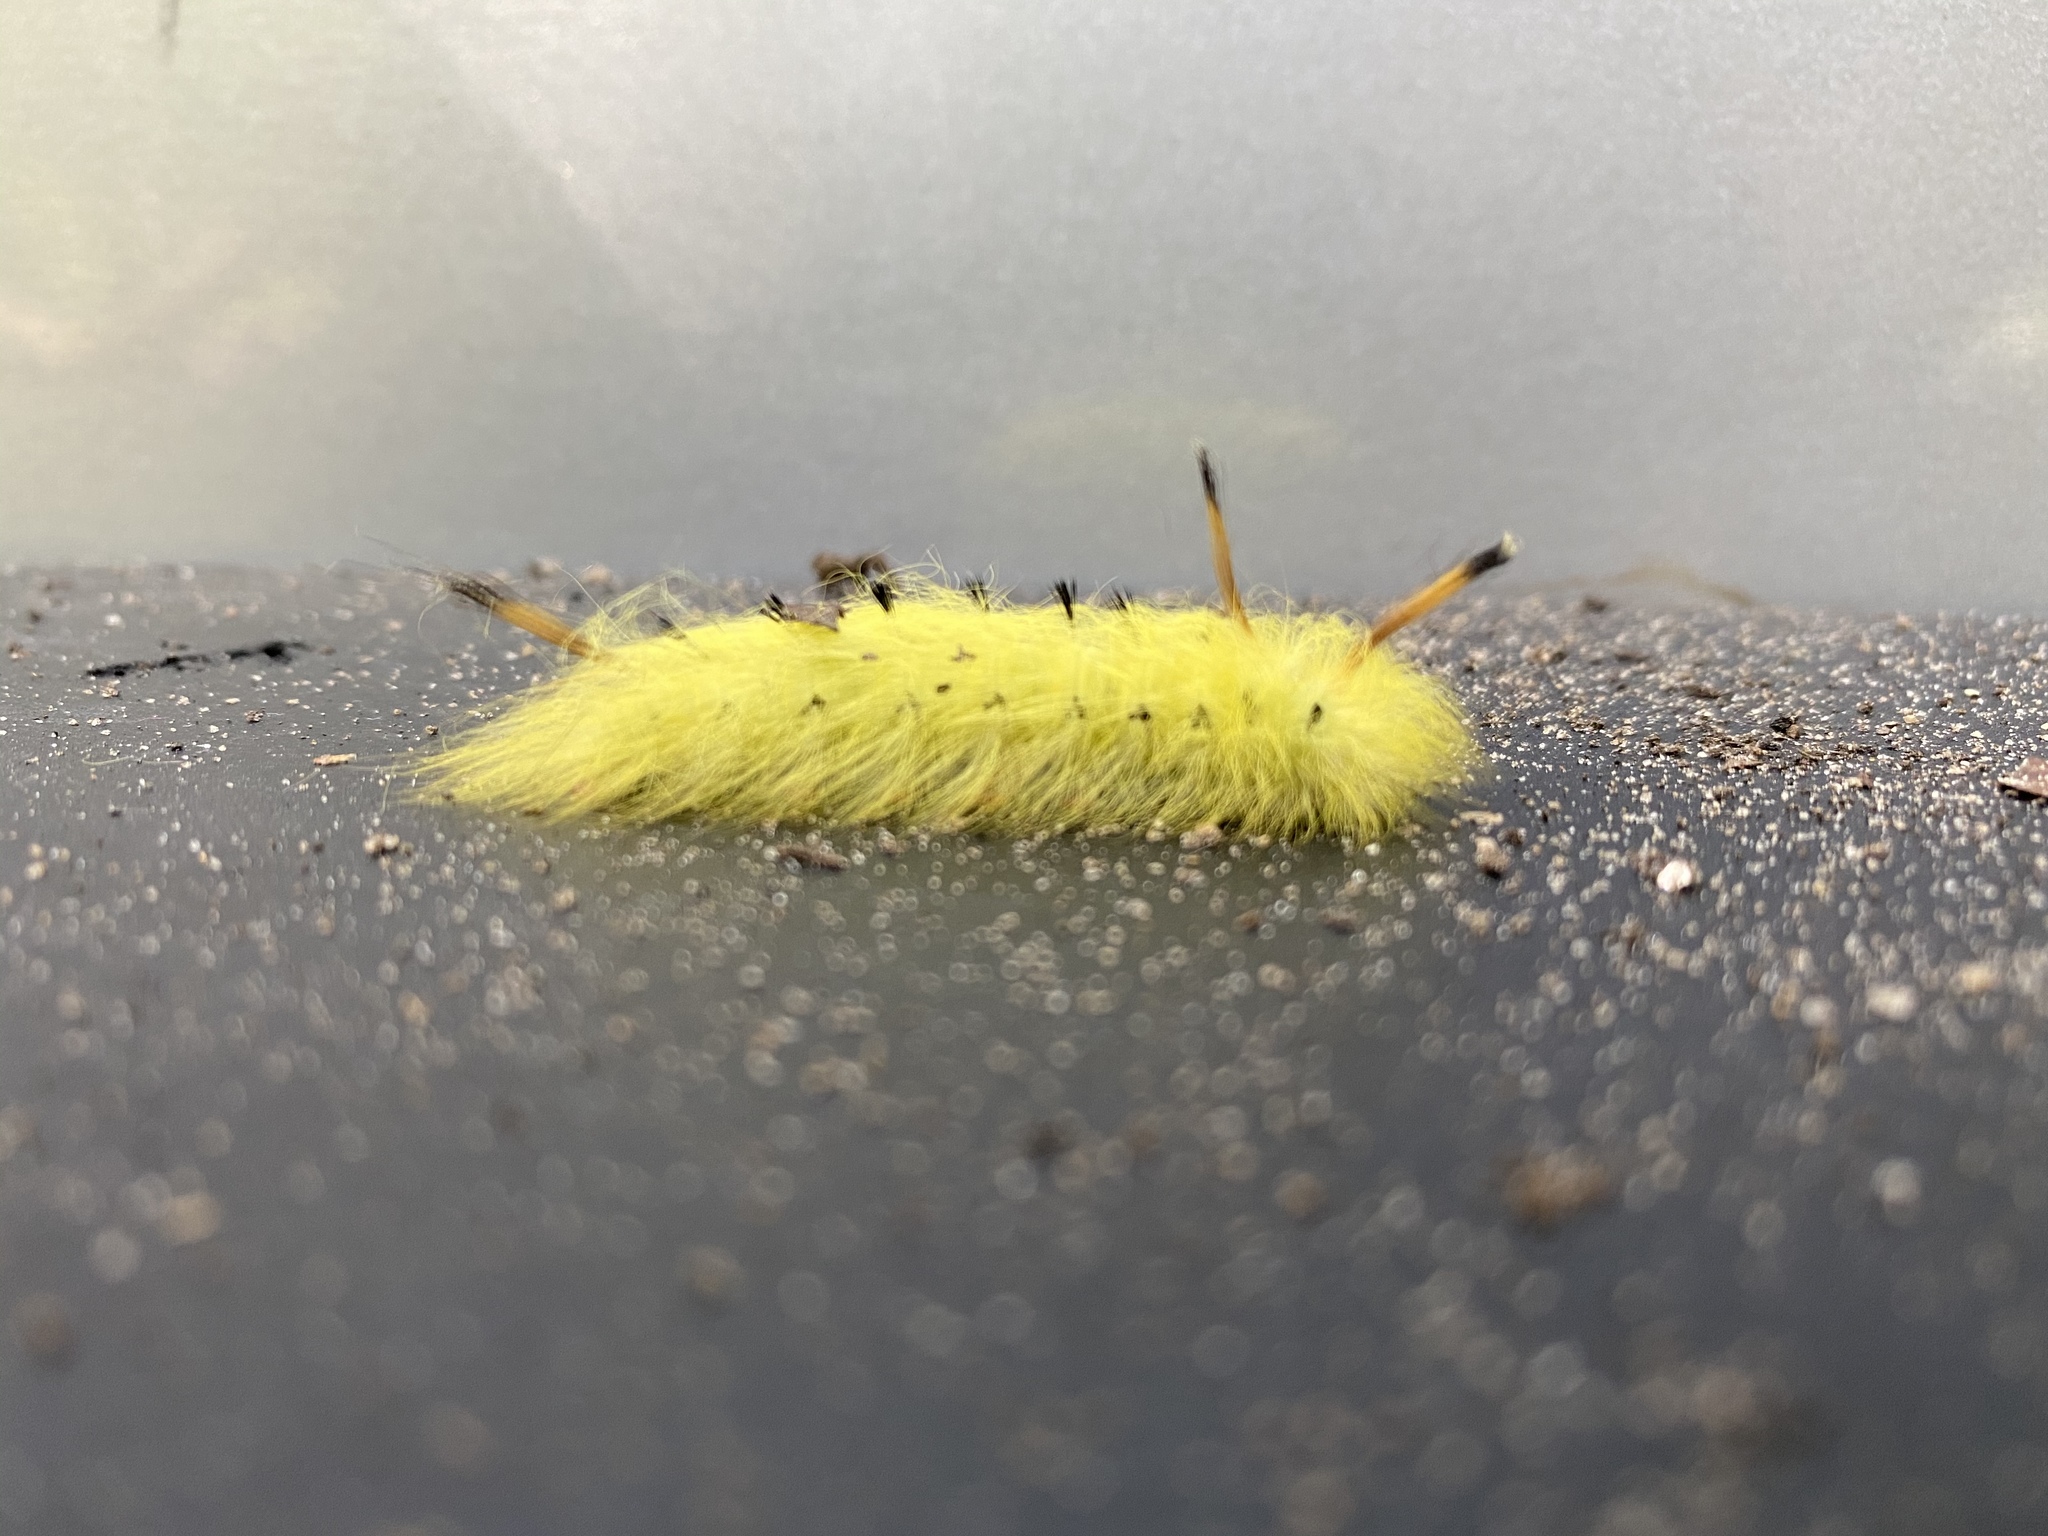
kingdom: Animalia
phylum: Arthropoda
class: Insecta
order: Lepidoptera
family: Apatelodidae
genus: Hygrochroa
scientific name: Hygrochroa Apatelodes torrefacta
